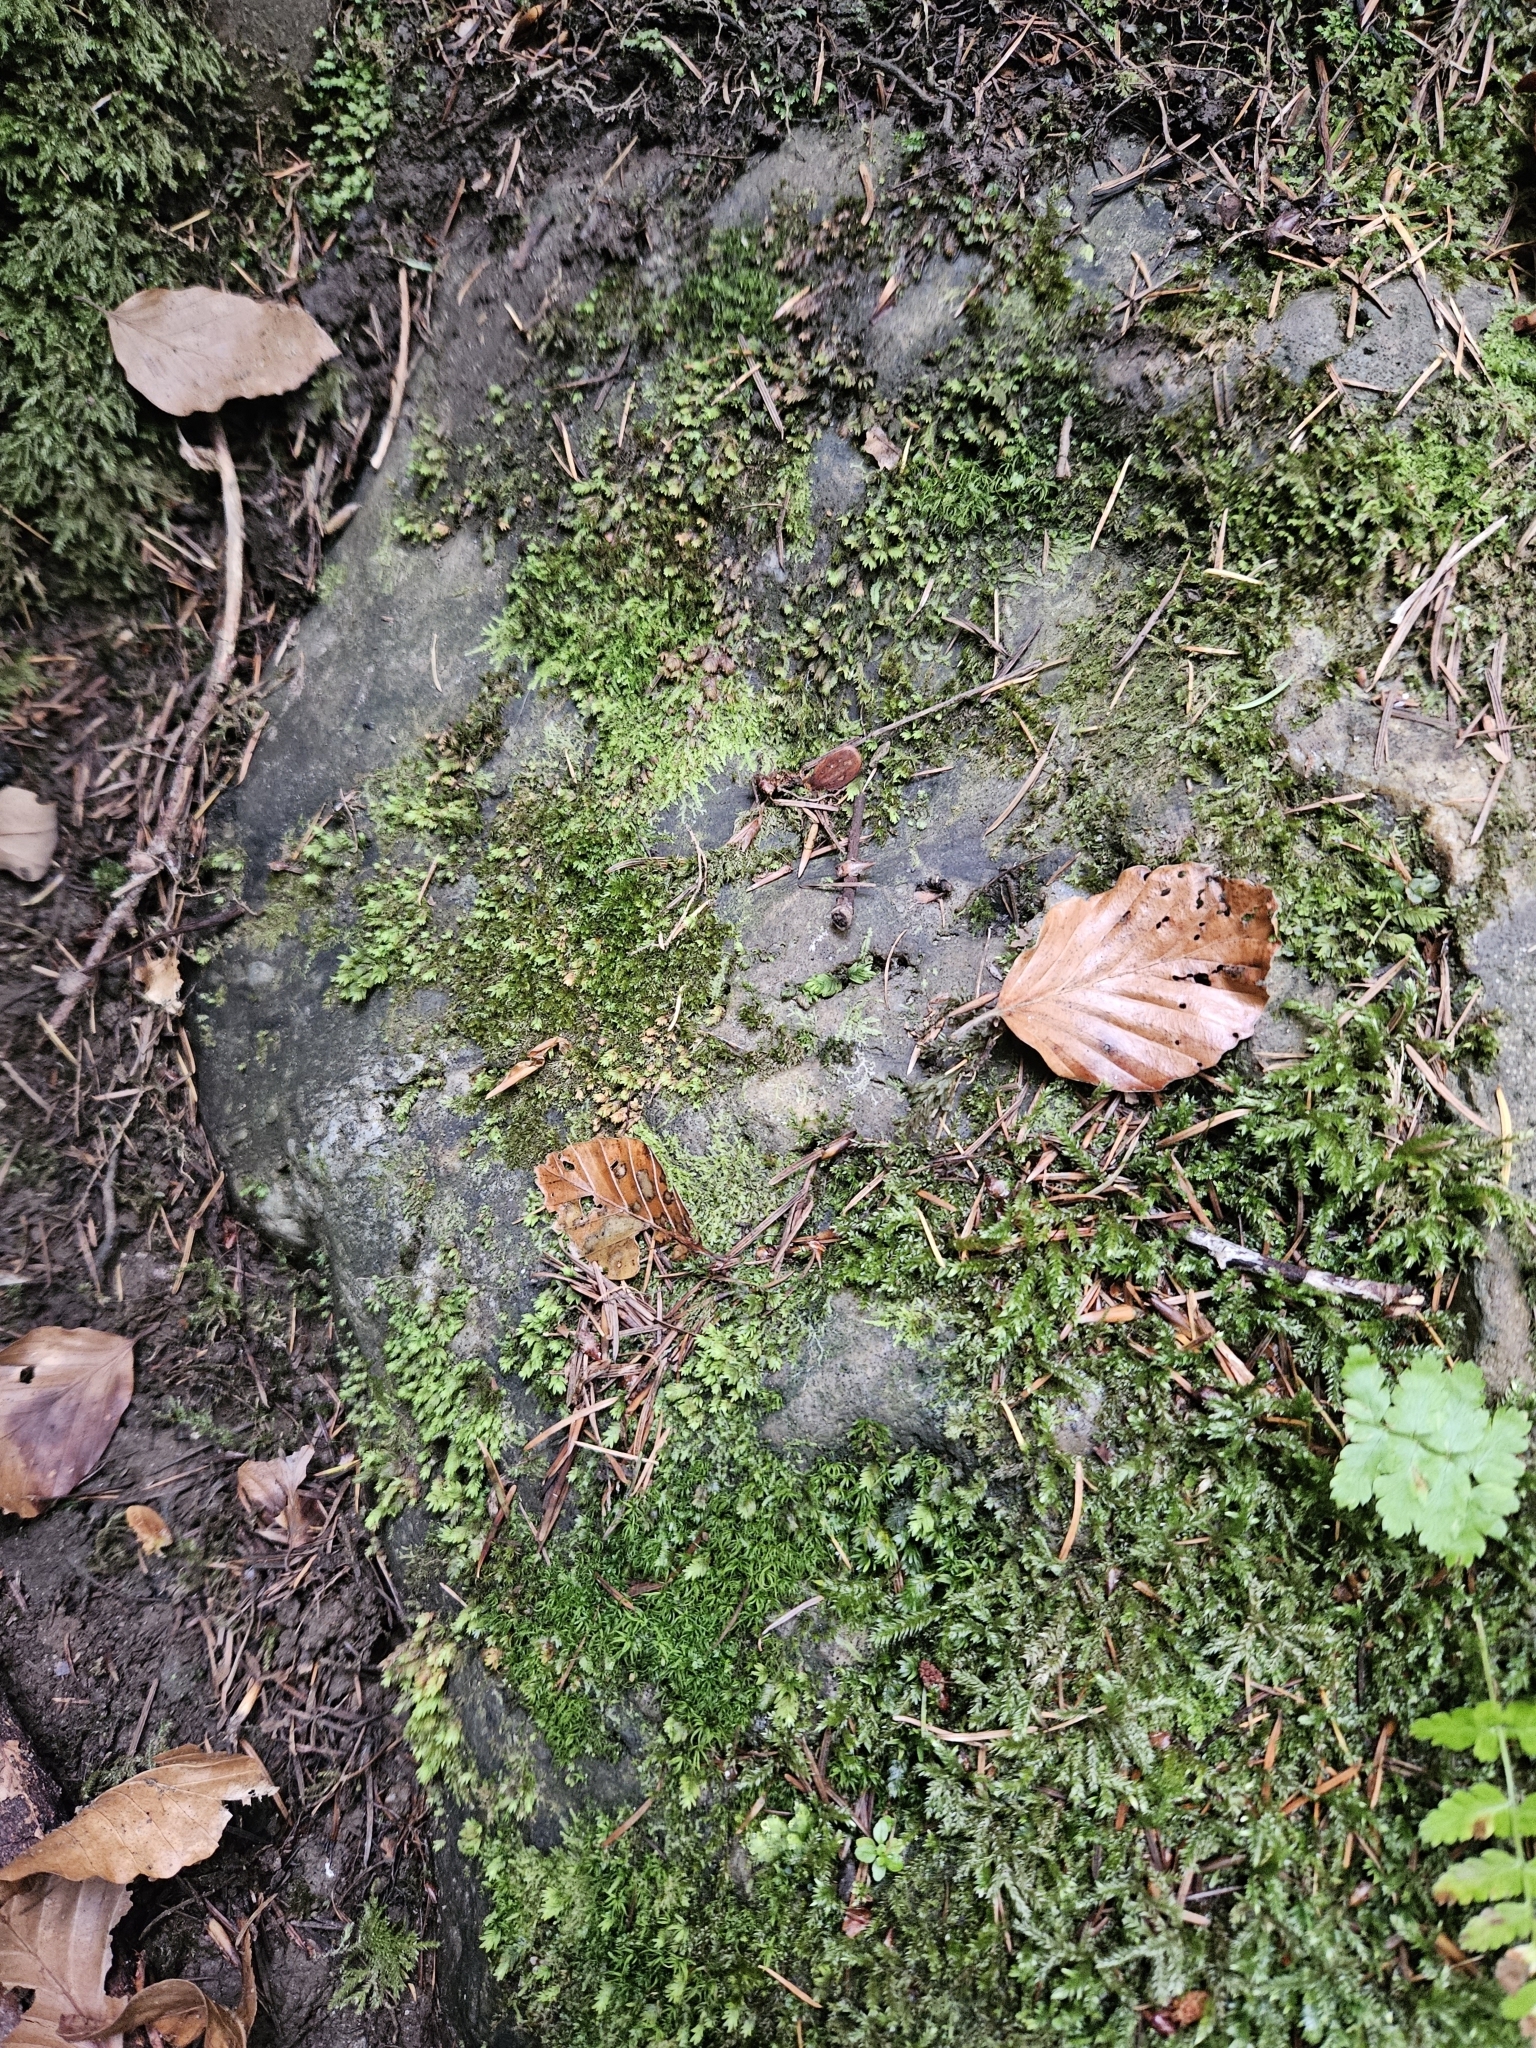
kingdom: Plantae
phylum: Marchantiophyta
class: Jungermanniopsida
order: Jungermanniales
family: Lophocoleaceae
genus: Lophocolea
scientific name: Lophocolea bidentata
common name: Bifid crestwort
